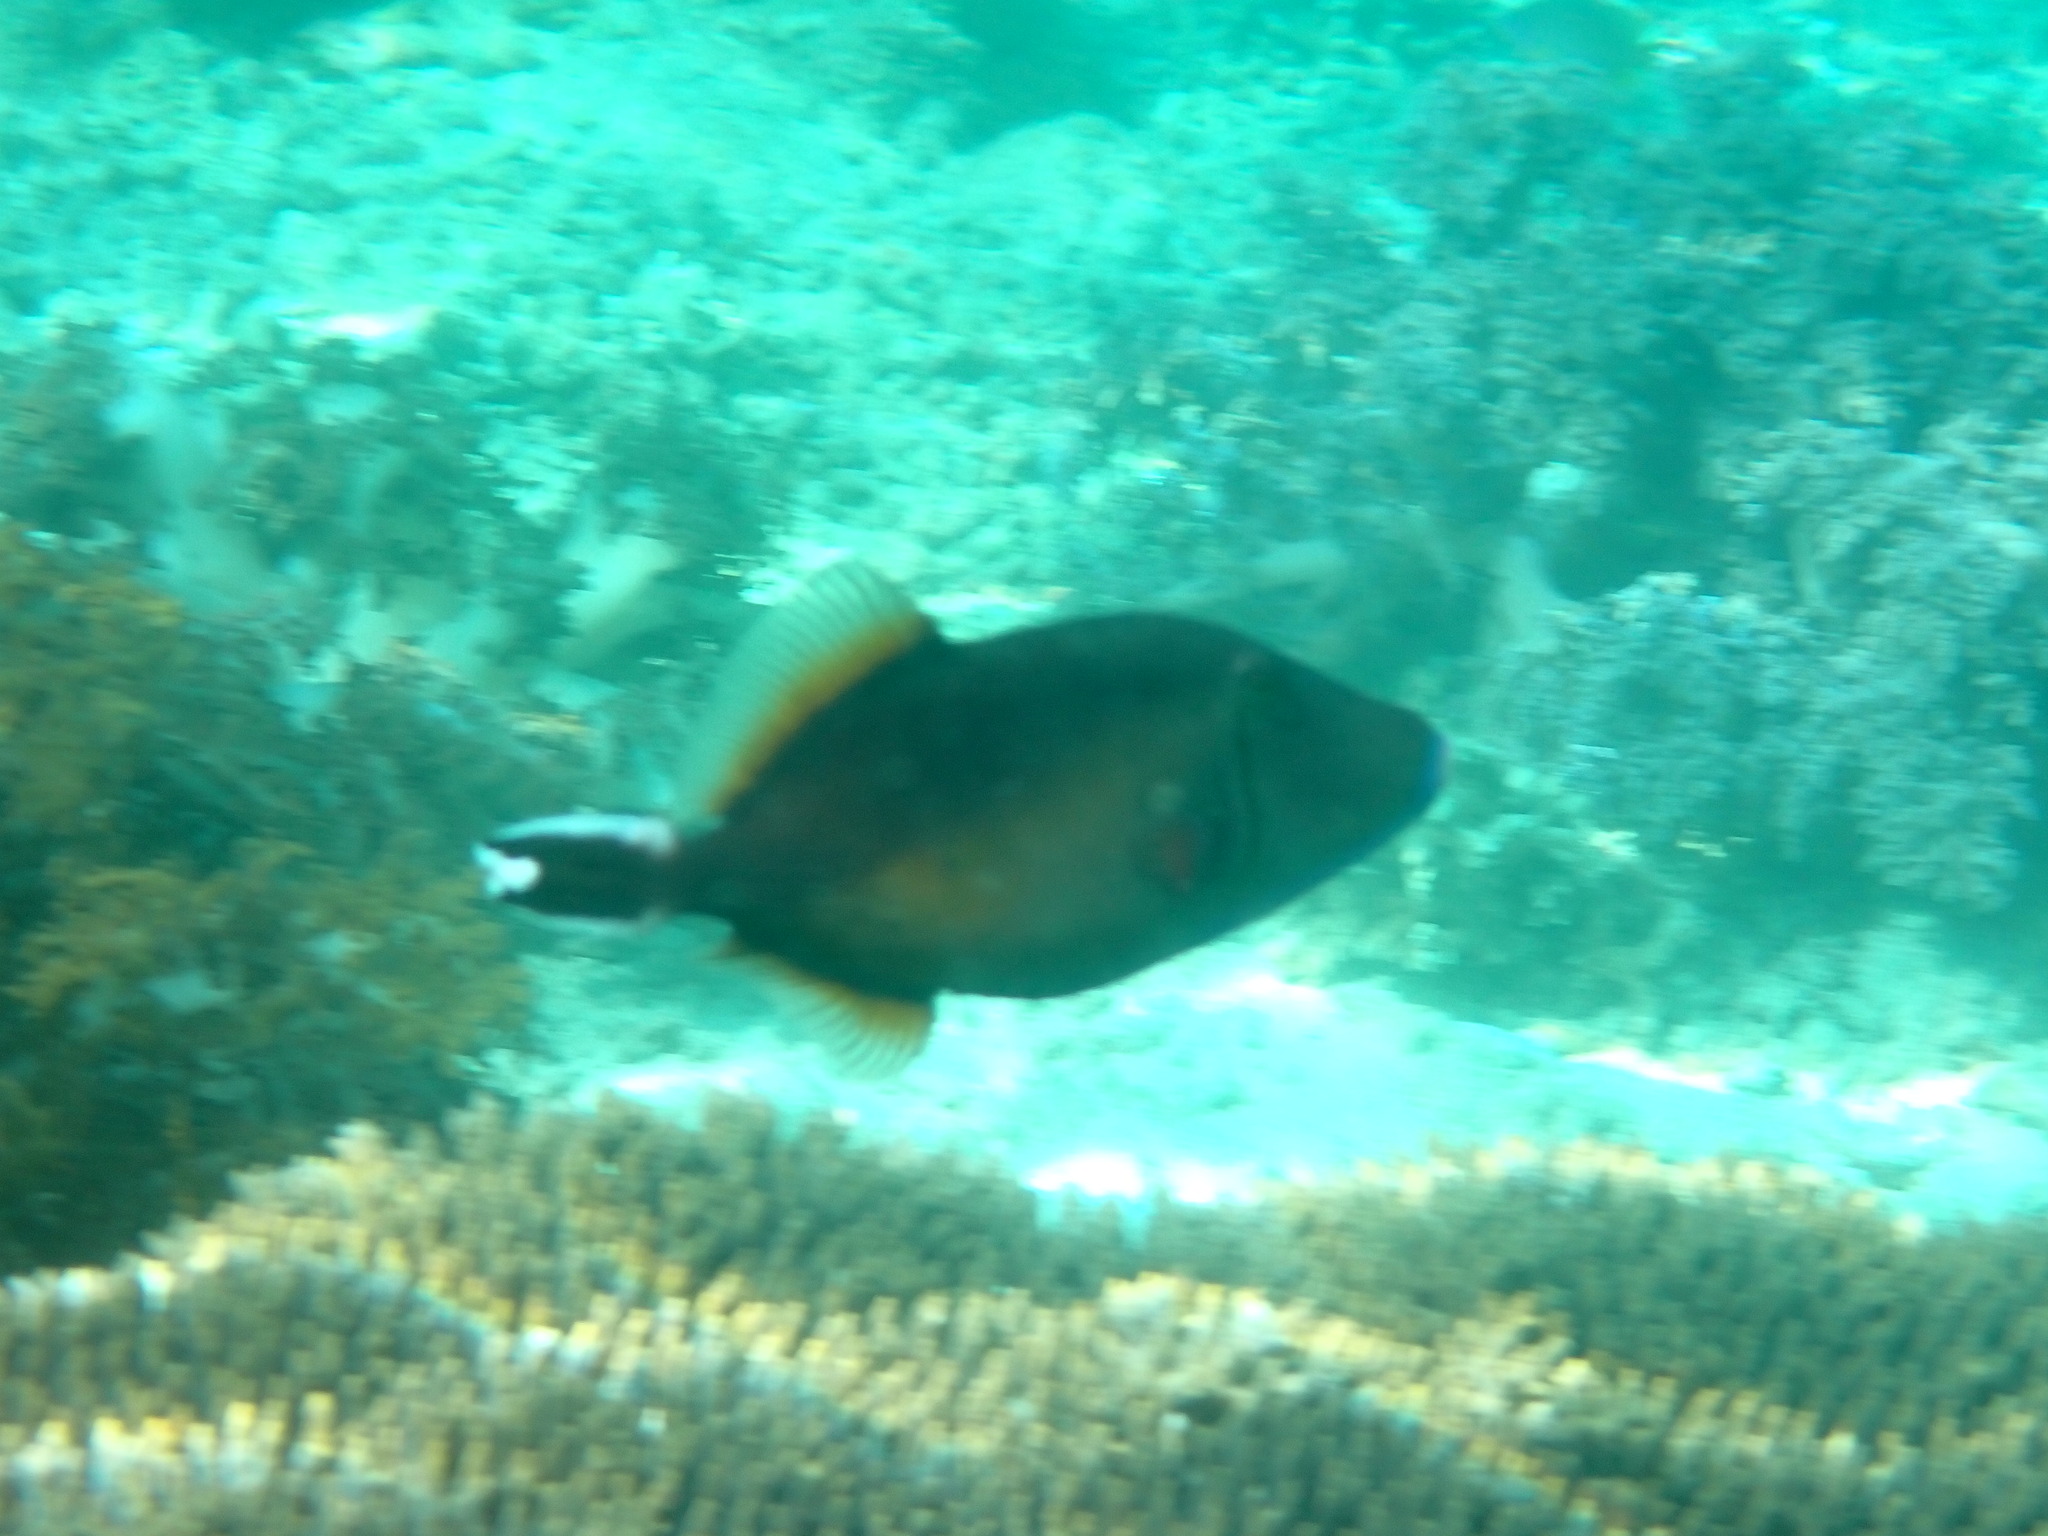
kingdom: Animalia
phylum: Chordata
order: Tetraodontiformes
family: Balistidae
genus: Sufflamen
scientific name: Sufflamen chrysopterum
